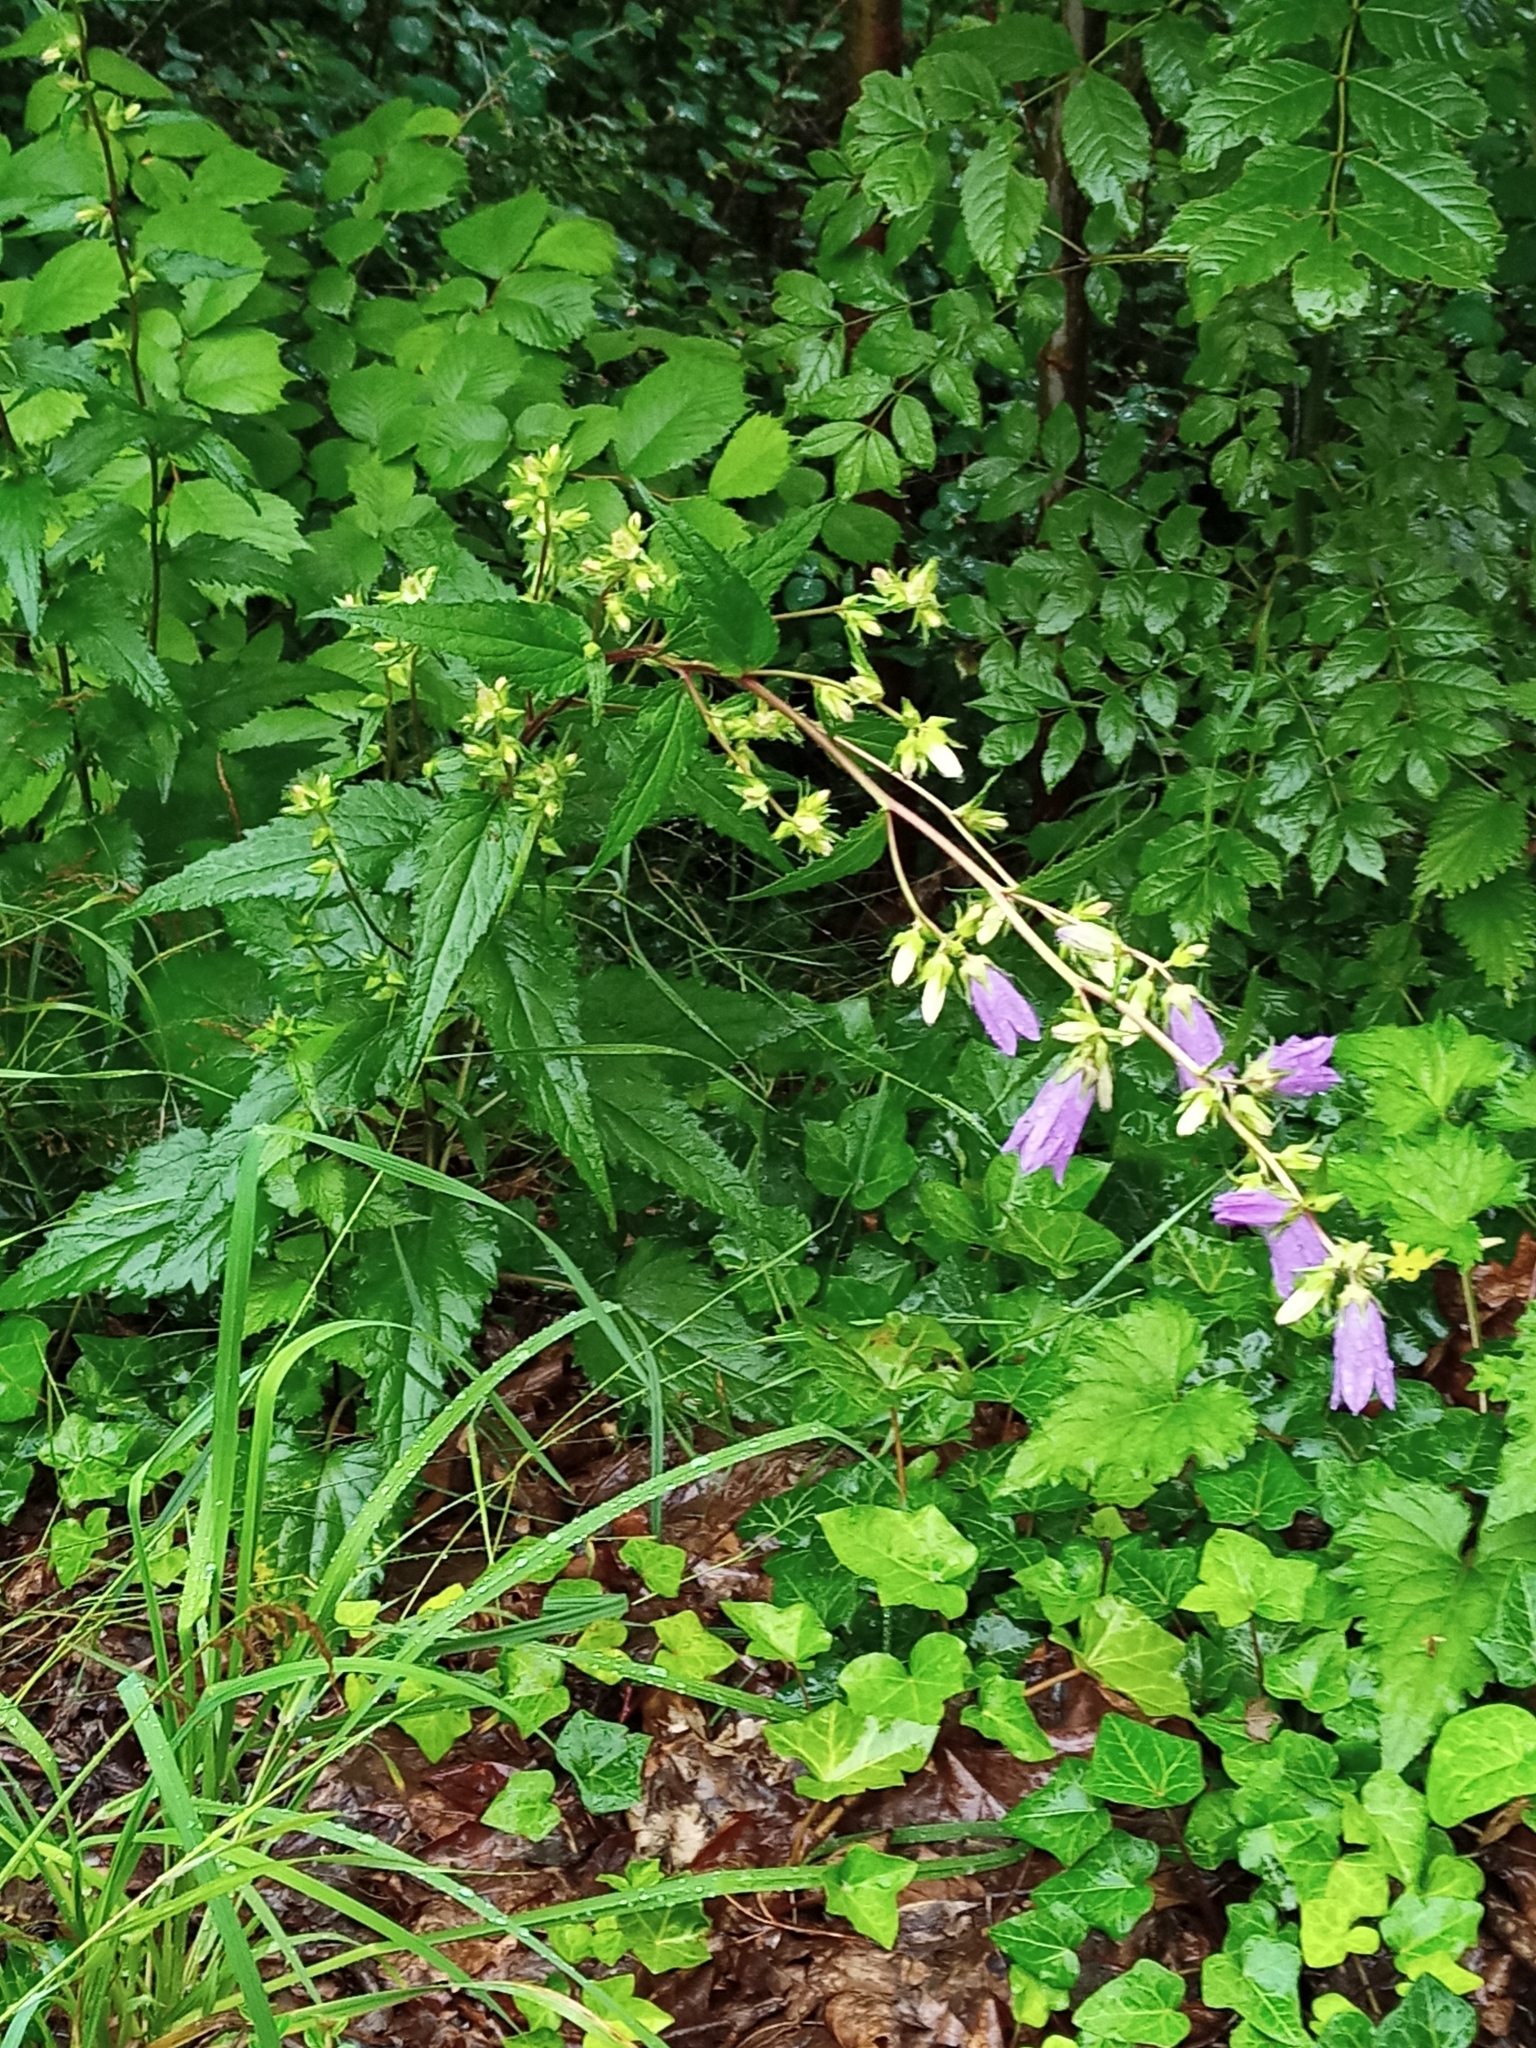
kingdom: Plantae
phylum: Tracheophyta
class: Magnoliopsida
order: Asterales
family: Campanulaceae
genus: Campanula
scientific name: Campanula rapunculoides
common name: Creeping bellflower
